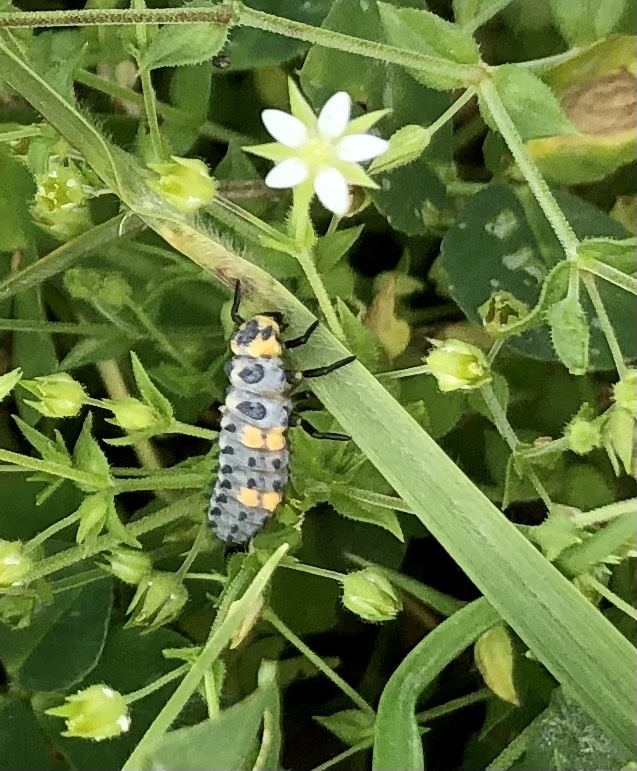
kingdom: Animalia
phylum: Arthropoda
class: Insecta
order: Coleoptera
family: Coccinellidae
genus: Coccinella
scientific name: Coccinella septempunctata
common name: Sevenspotted lady beetle
